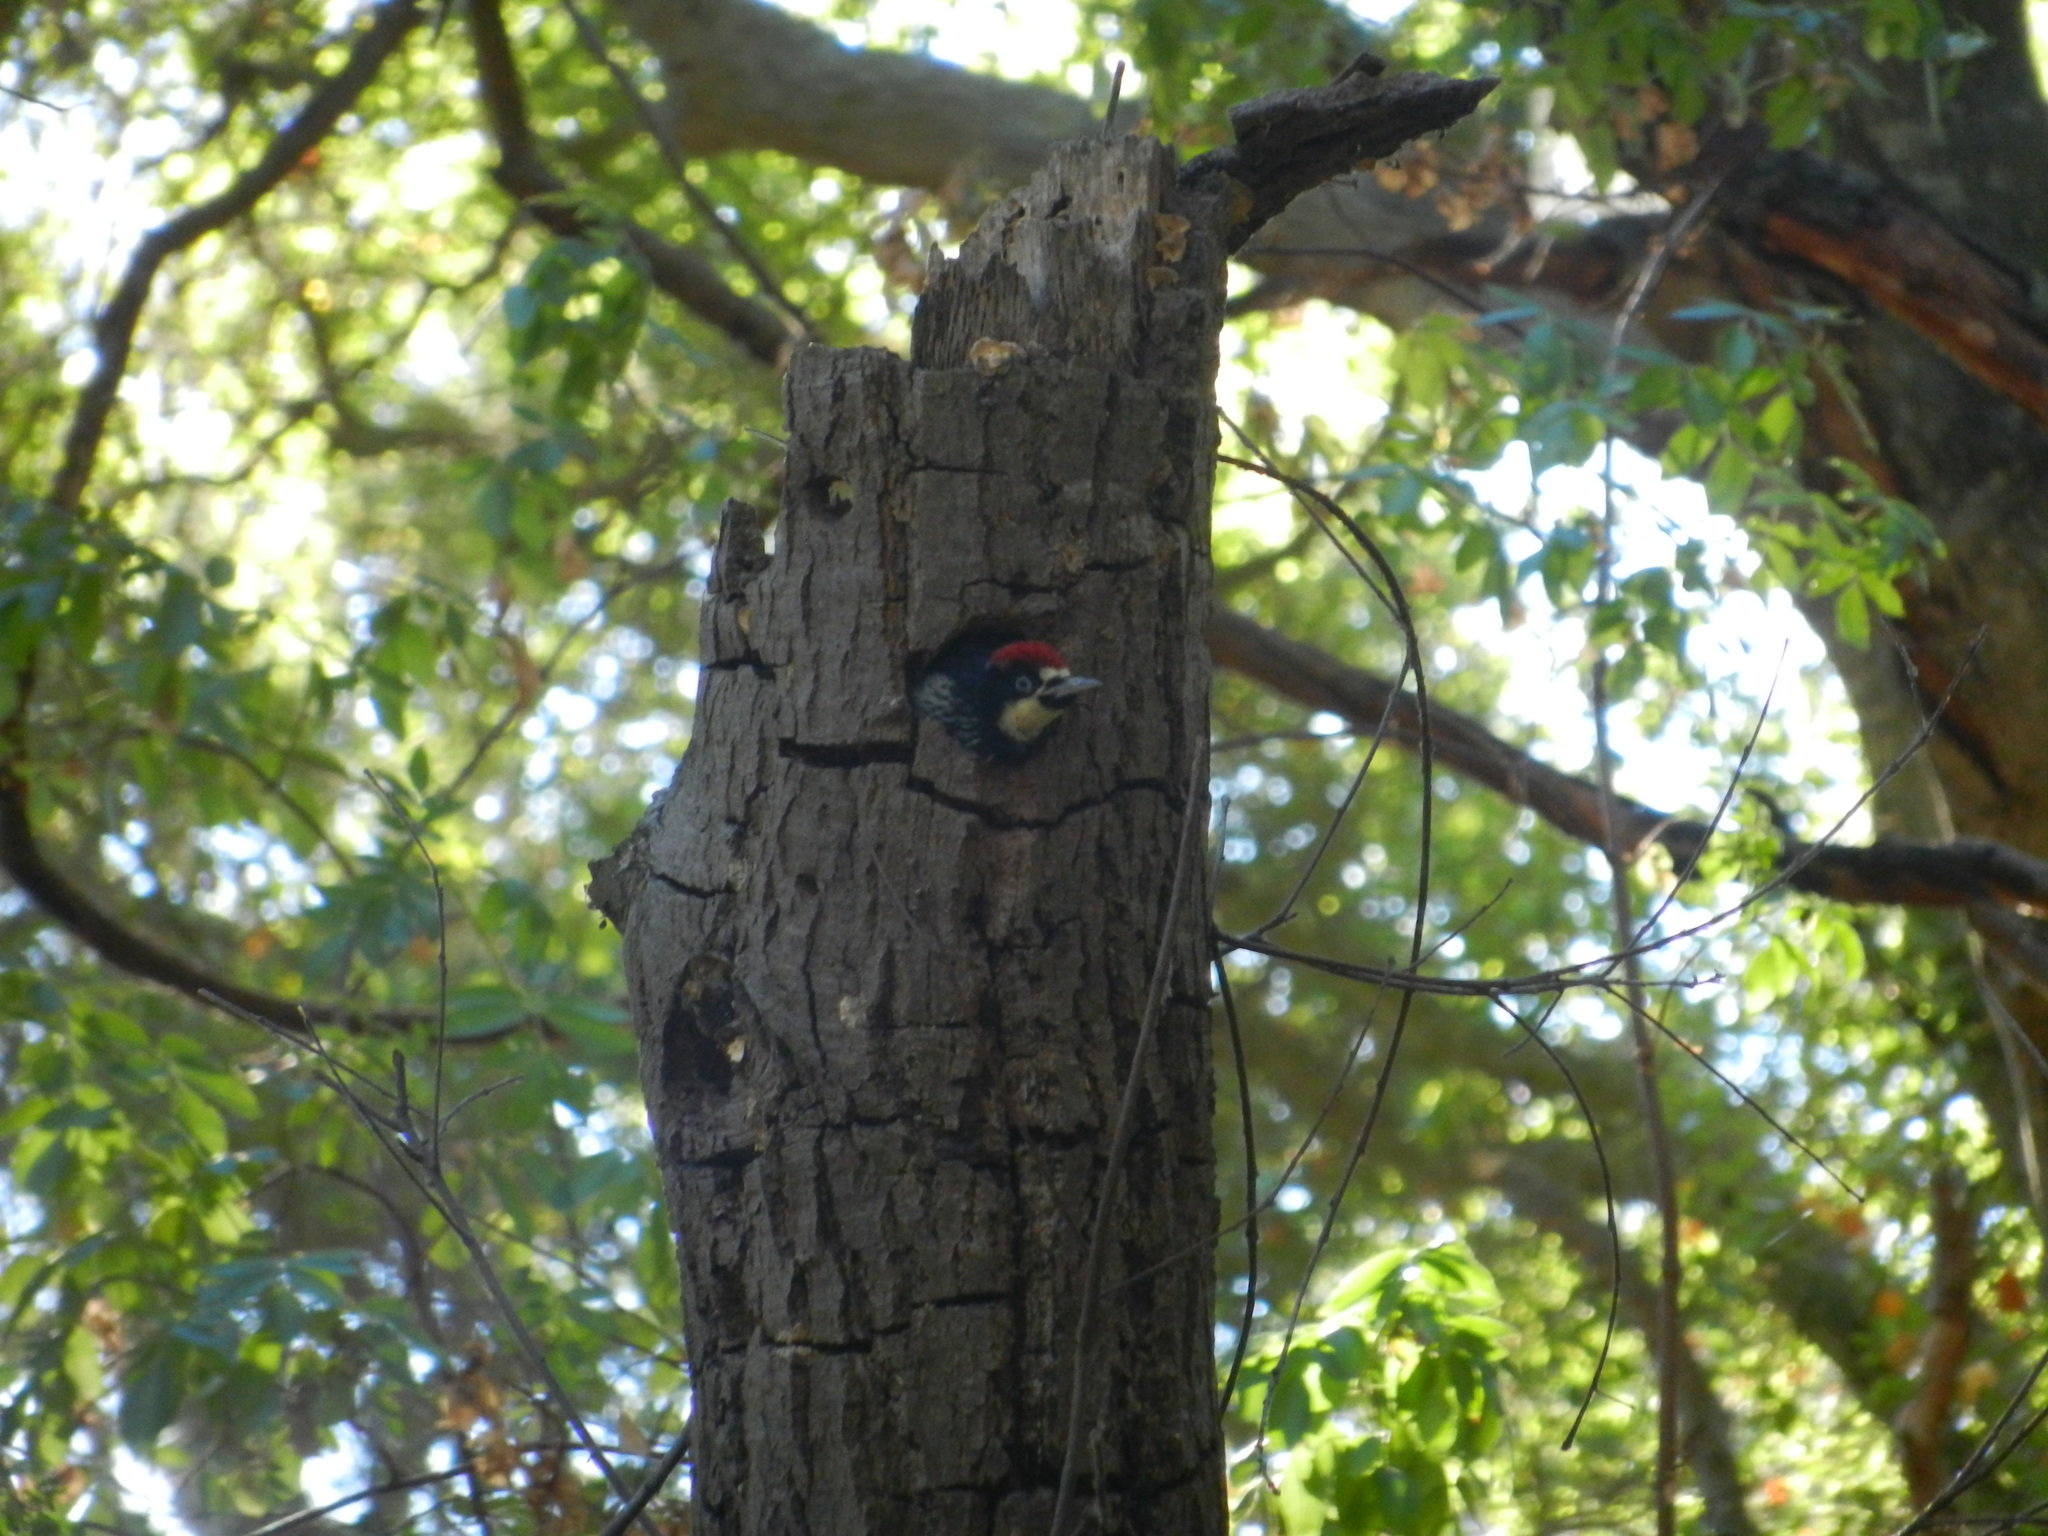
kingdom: Animalia
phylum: Chordata
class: Aves
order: Piciformes
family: Picidae
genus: Melanerpes
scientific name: Melanerpes formicivorus
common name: Acorn woodpecker
